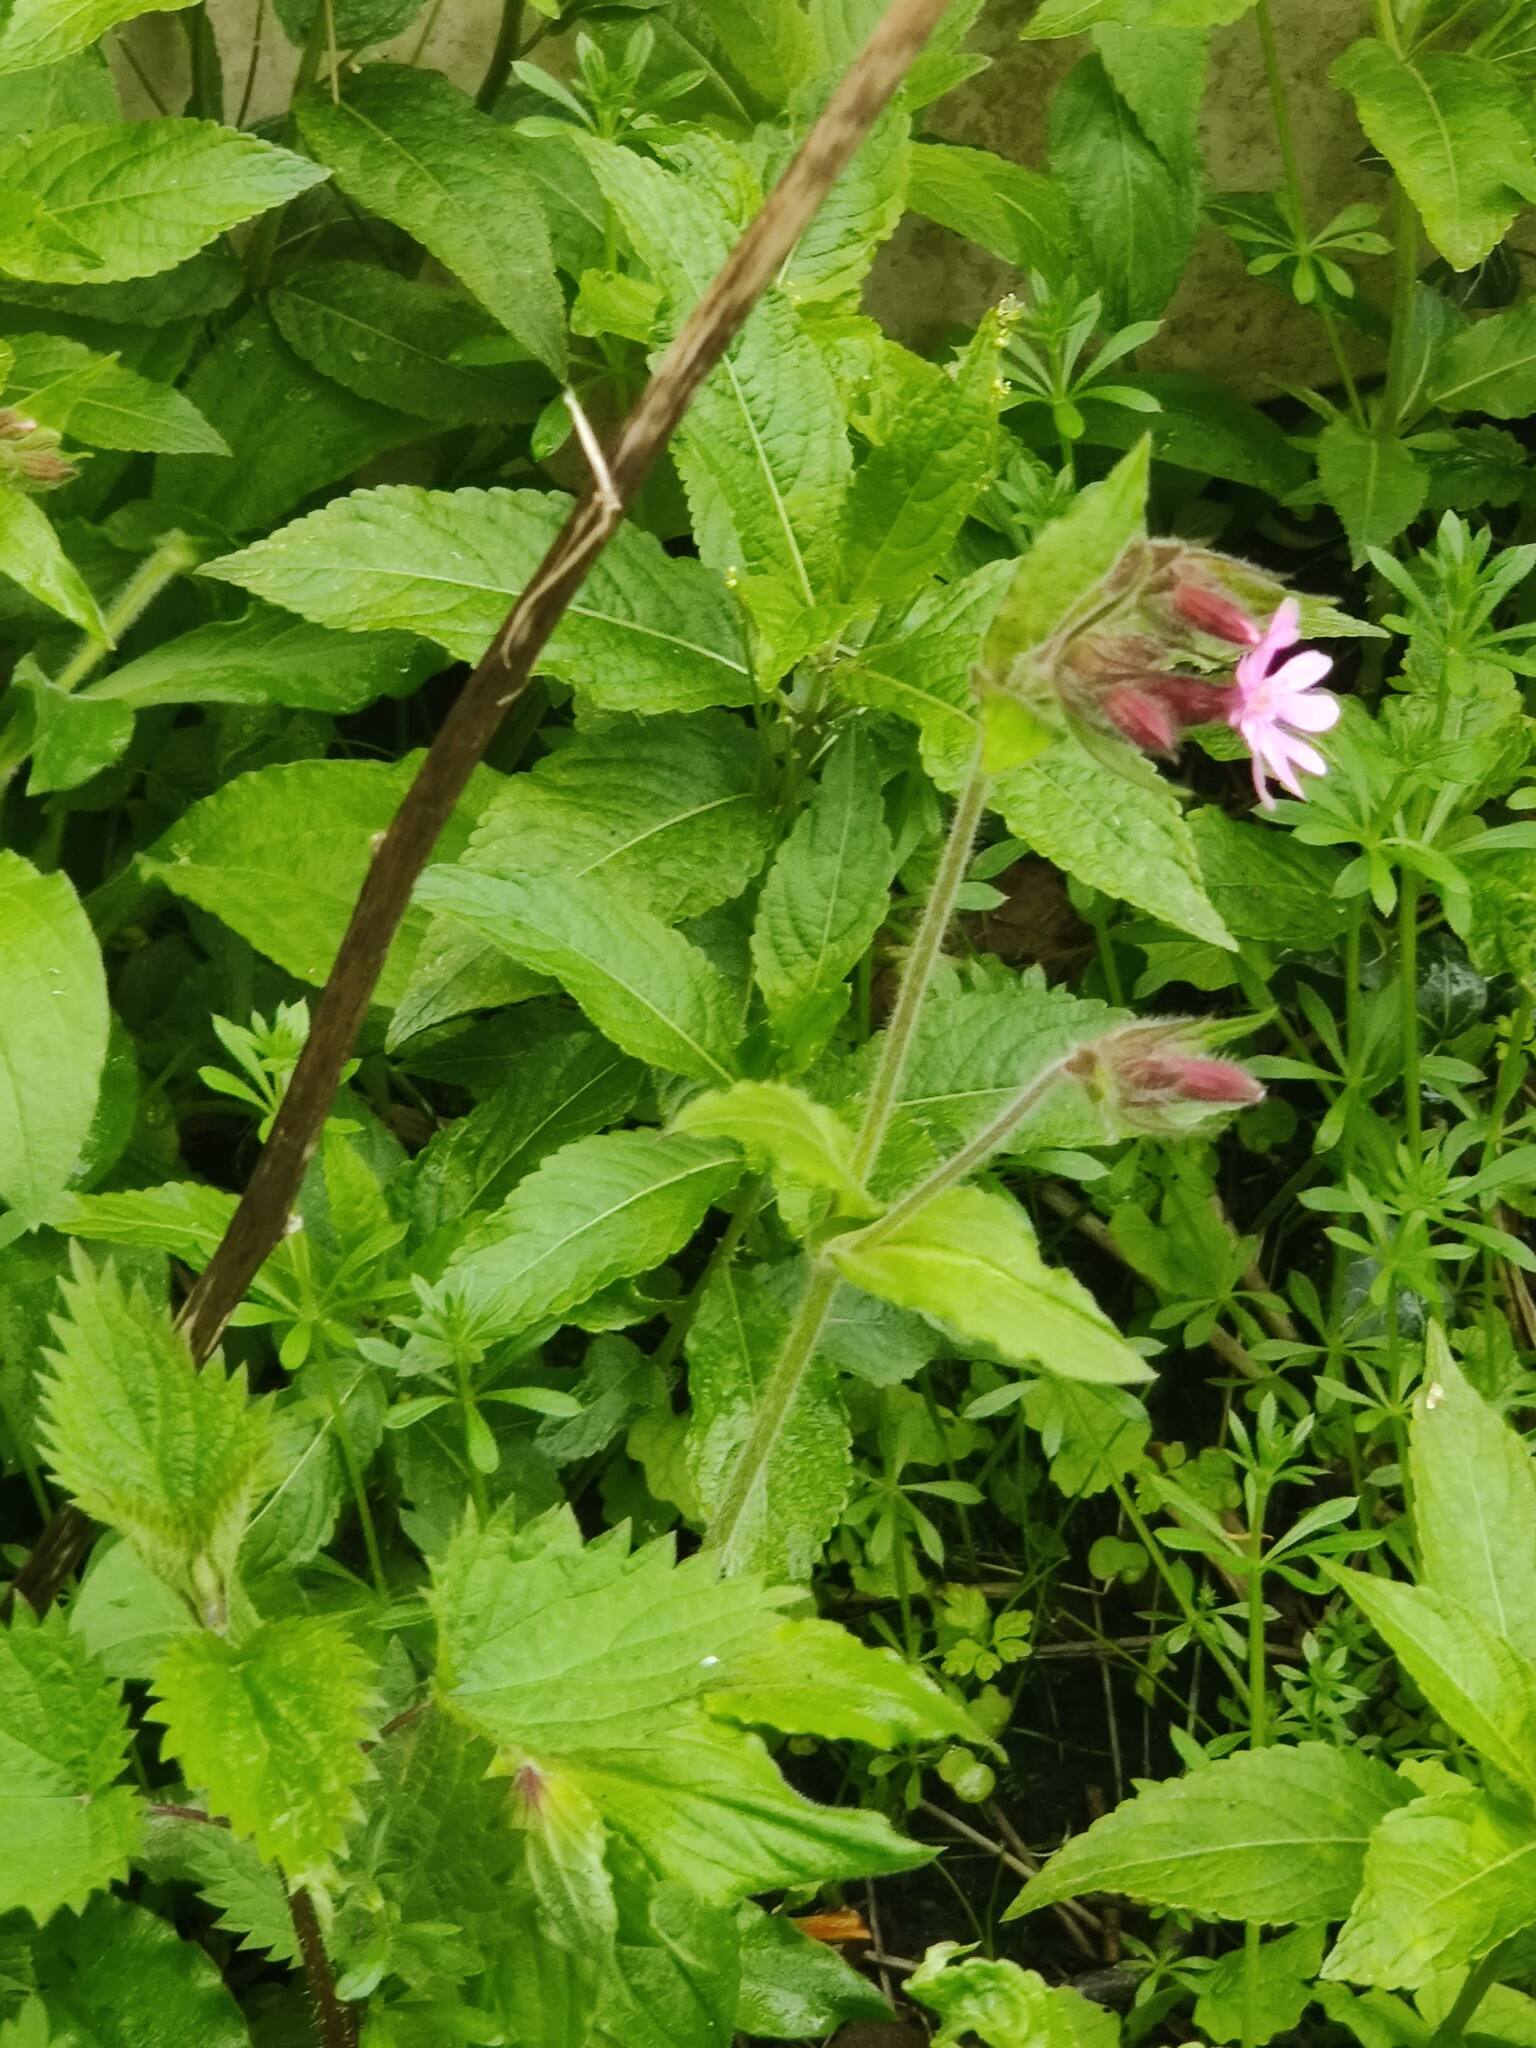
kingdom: Plantae
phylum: Tracheophyta
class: Magnoliopsida
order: Caryophyllales
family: Caryophyllaceae
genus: Silene
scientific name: Silene dioica
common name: Red campion
